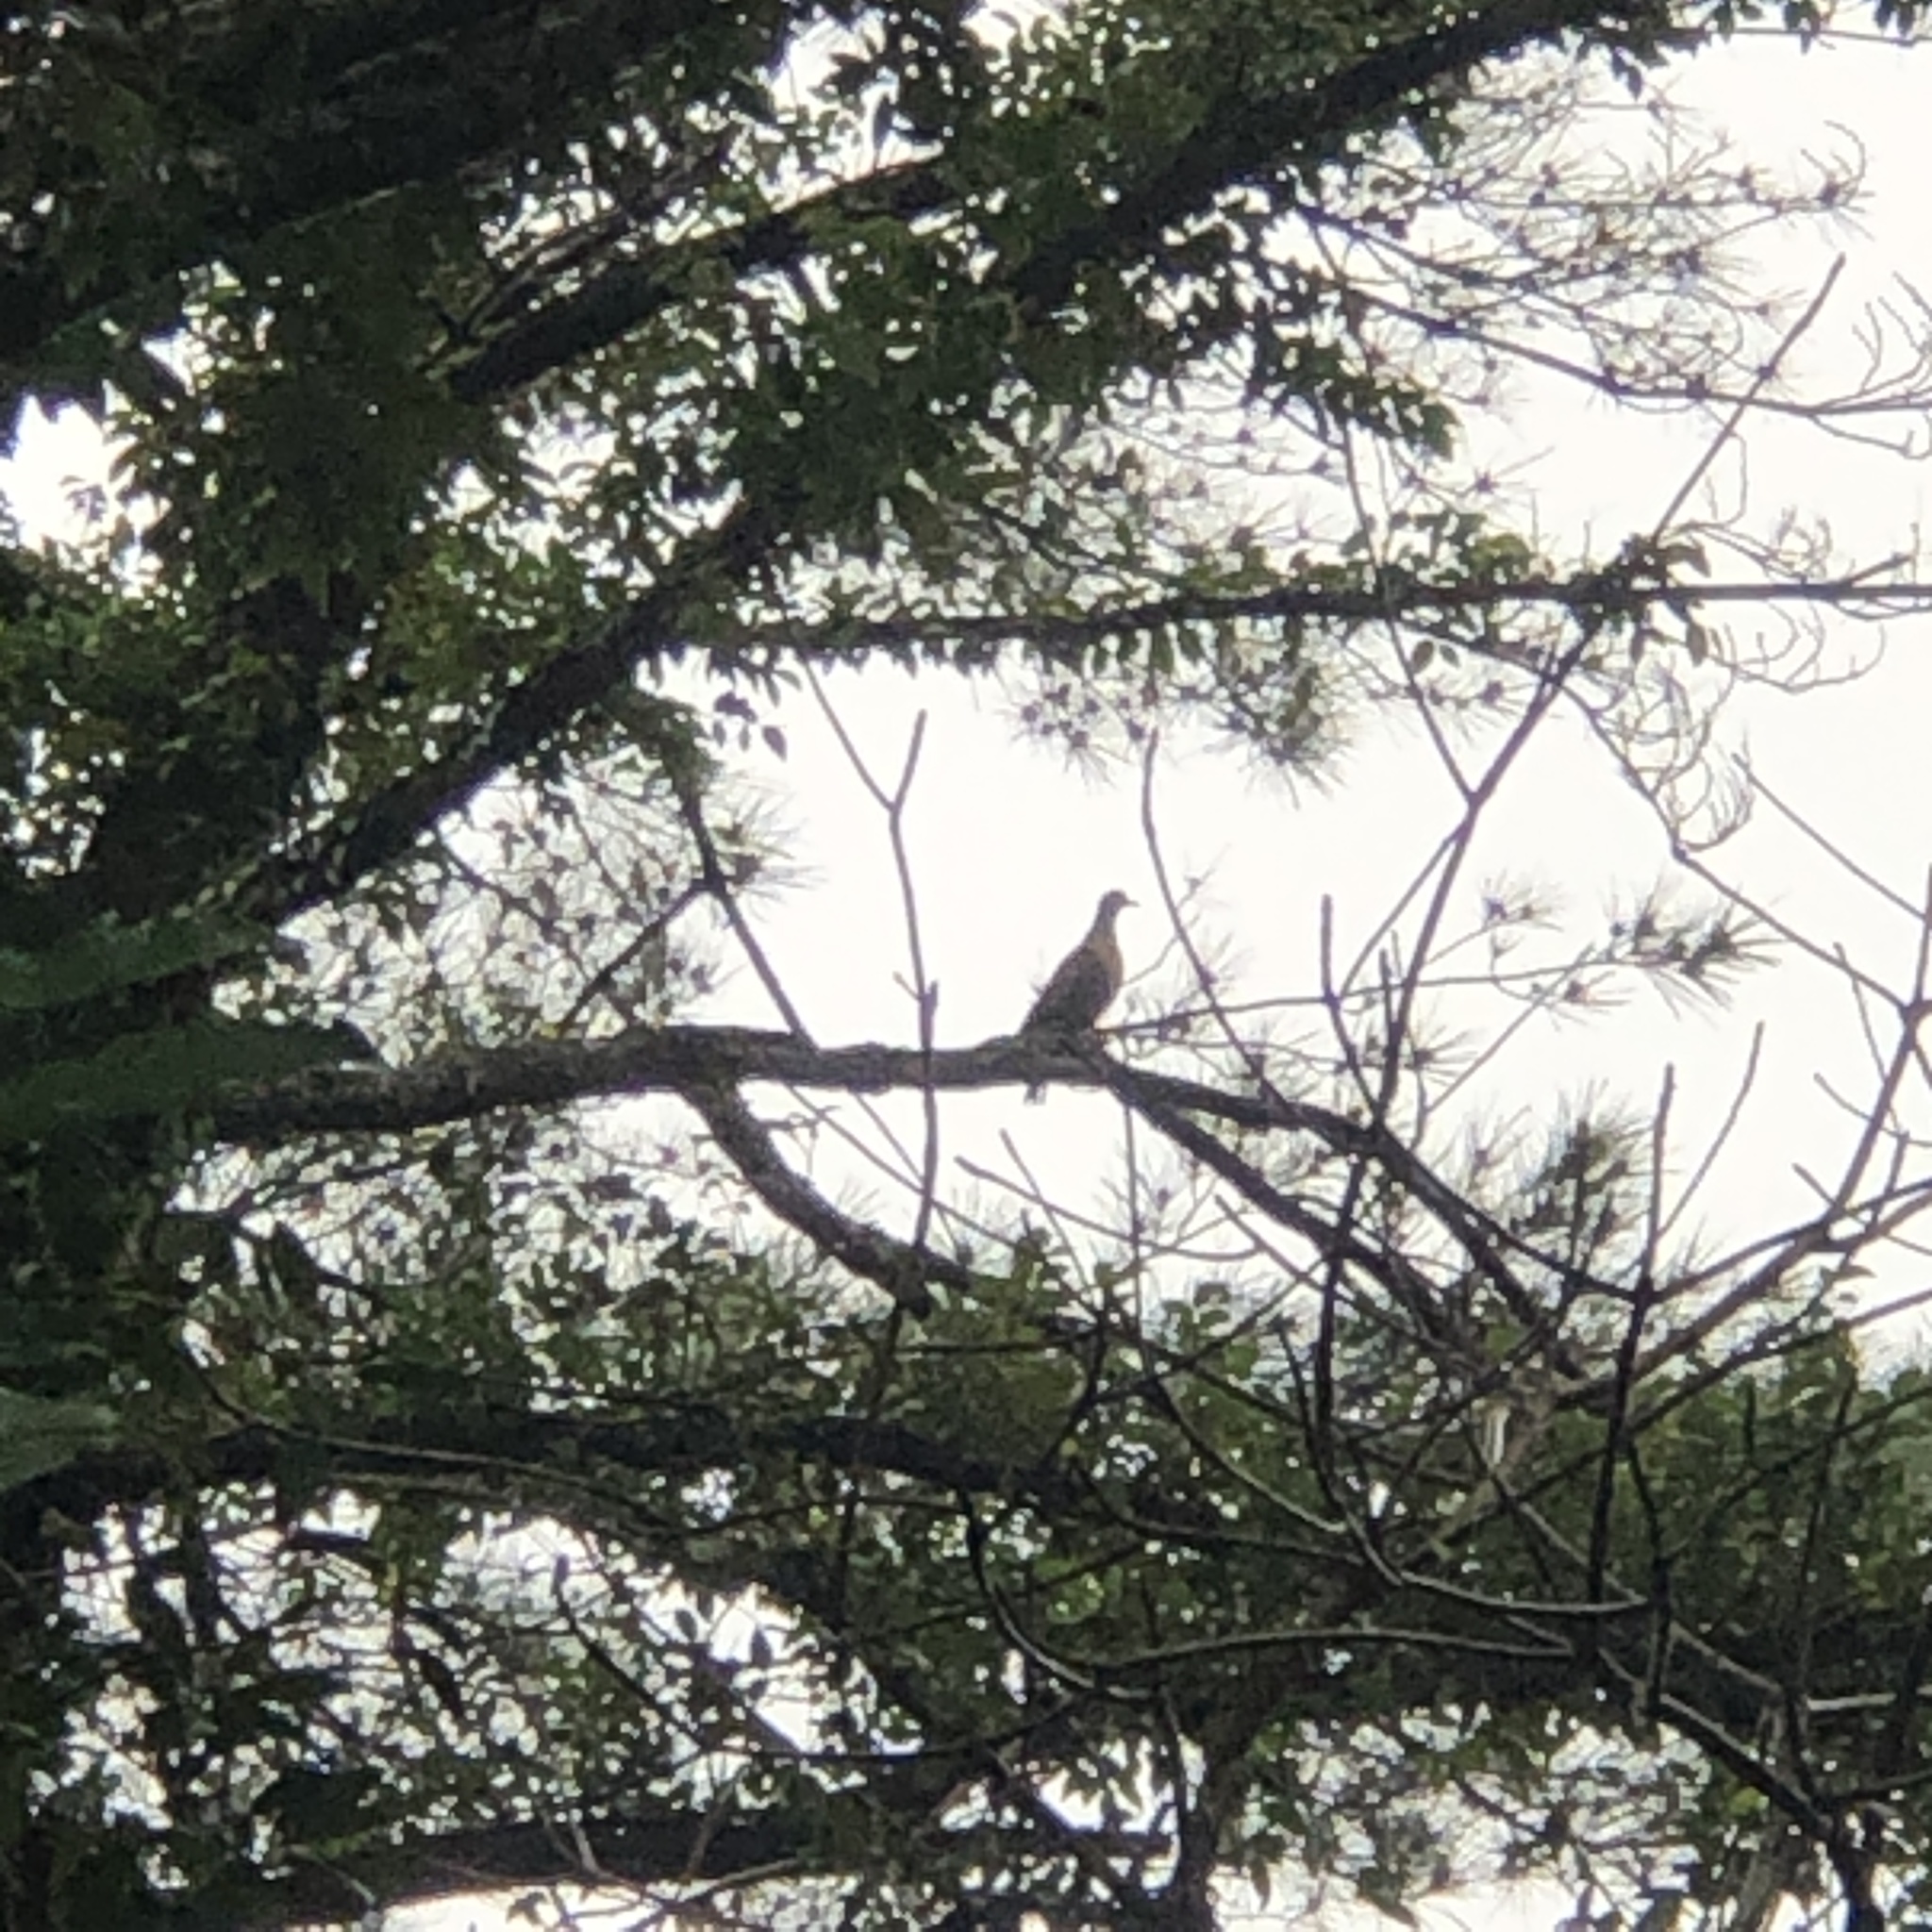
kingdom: Animalia
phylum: Chordata
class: Aves
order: Columbiformes
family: Columbidae
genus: Streptopelia
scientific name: Streptopelia orientalis
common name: Oriental turtle dove
